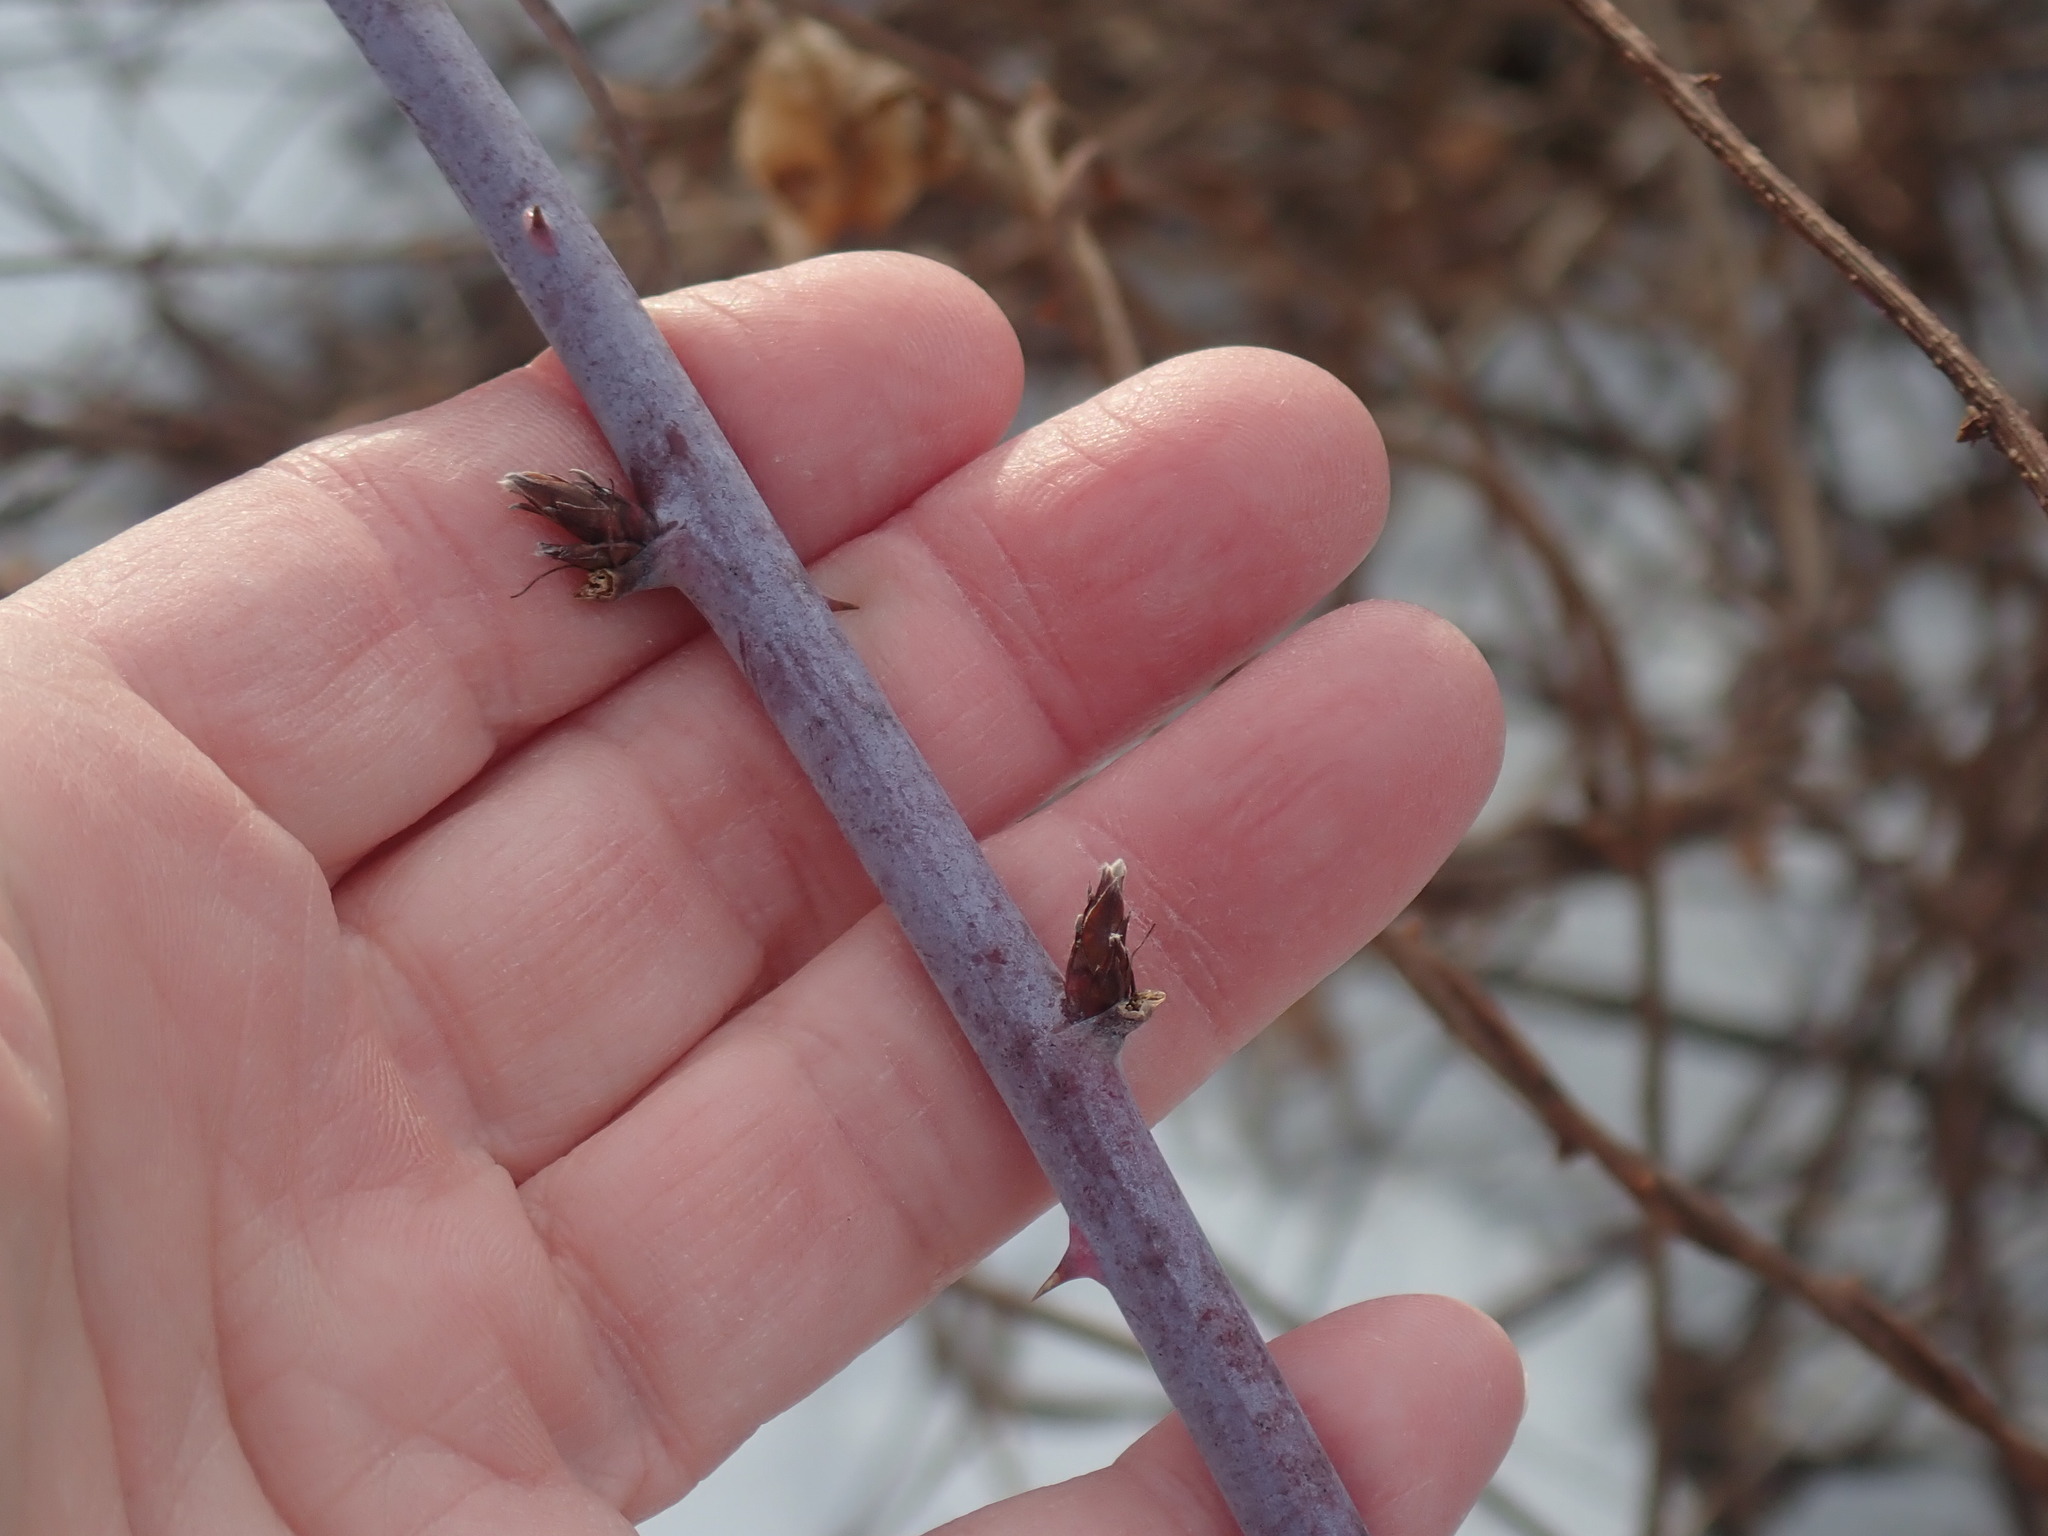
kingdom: Plantae
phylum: Tracheophyta
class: Magnoliopsida
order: Rosales
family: Rosaceae
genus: Rubus
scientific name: Rubus occidentalis
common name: Black raspberry
